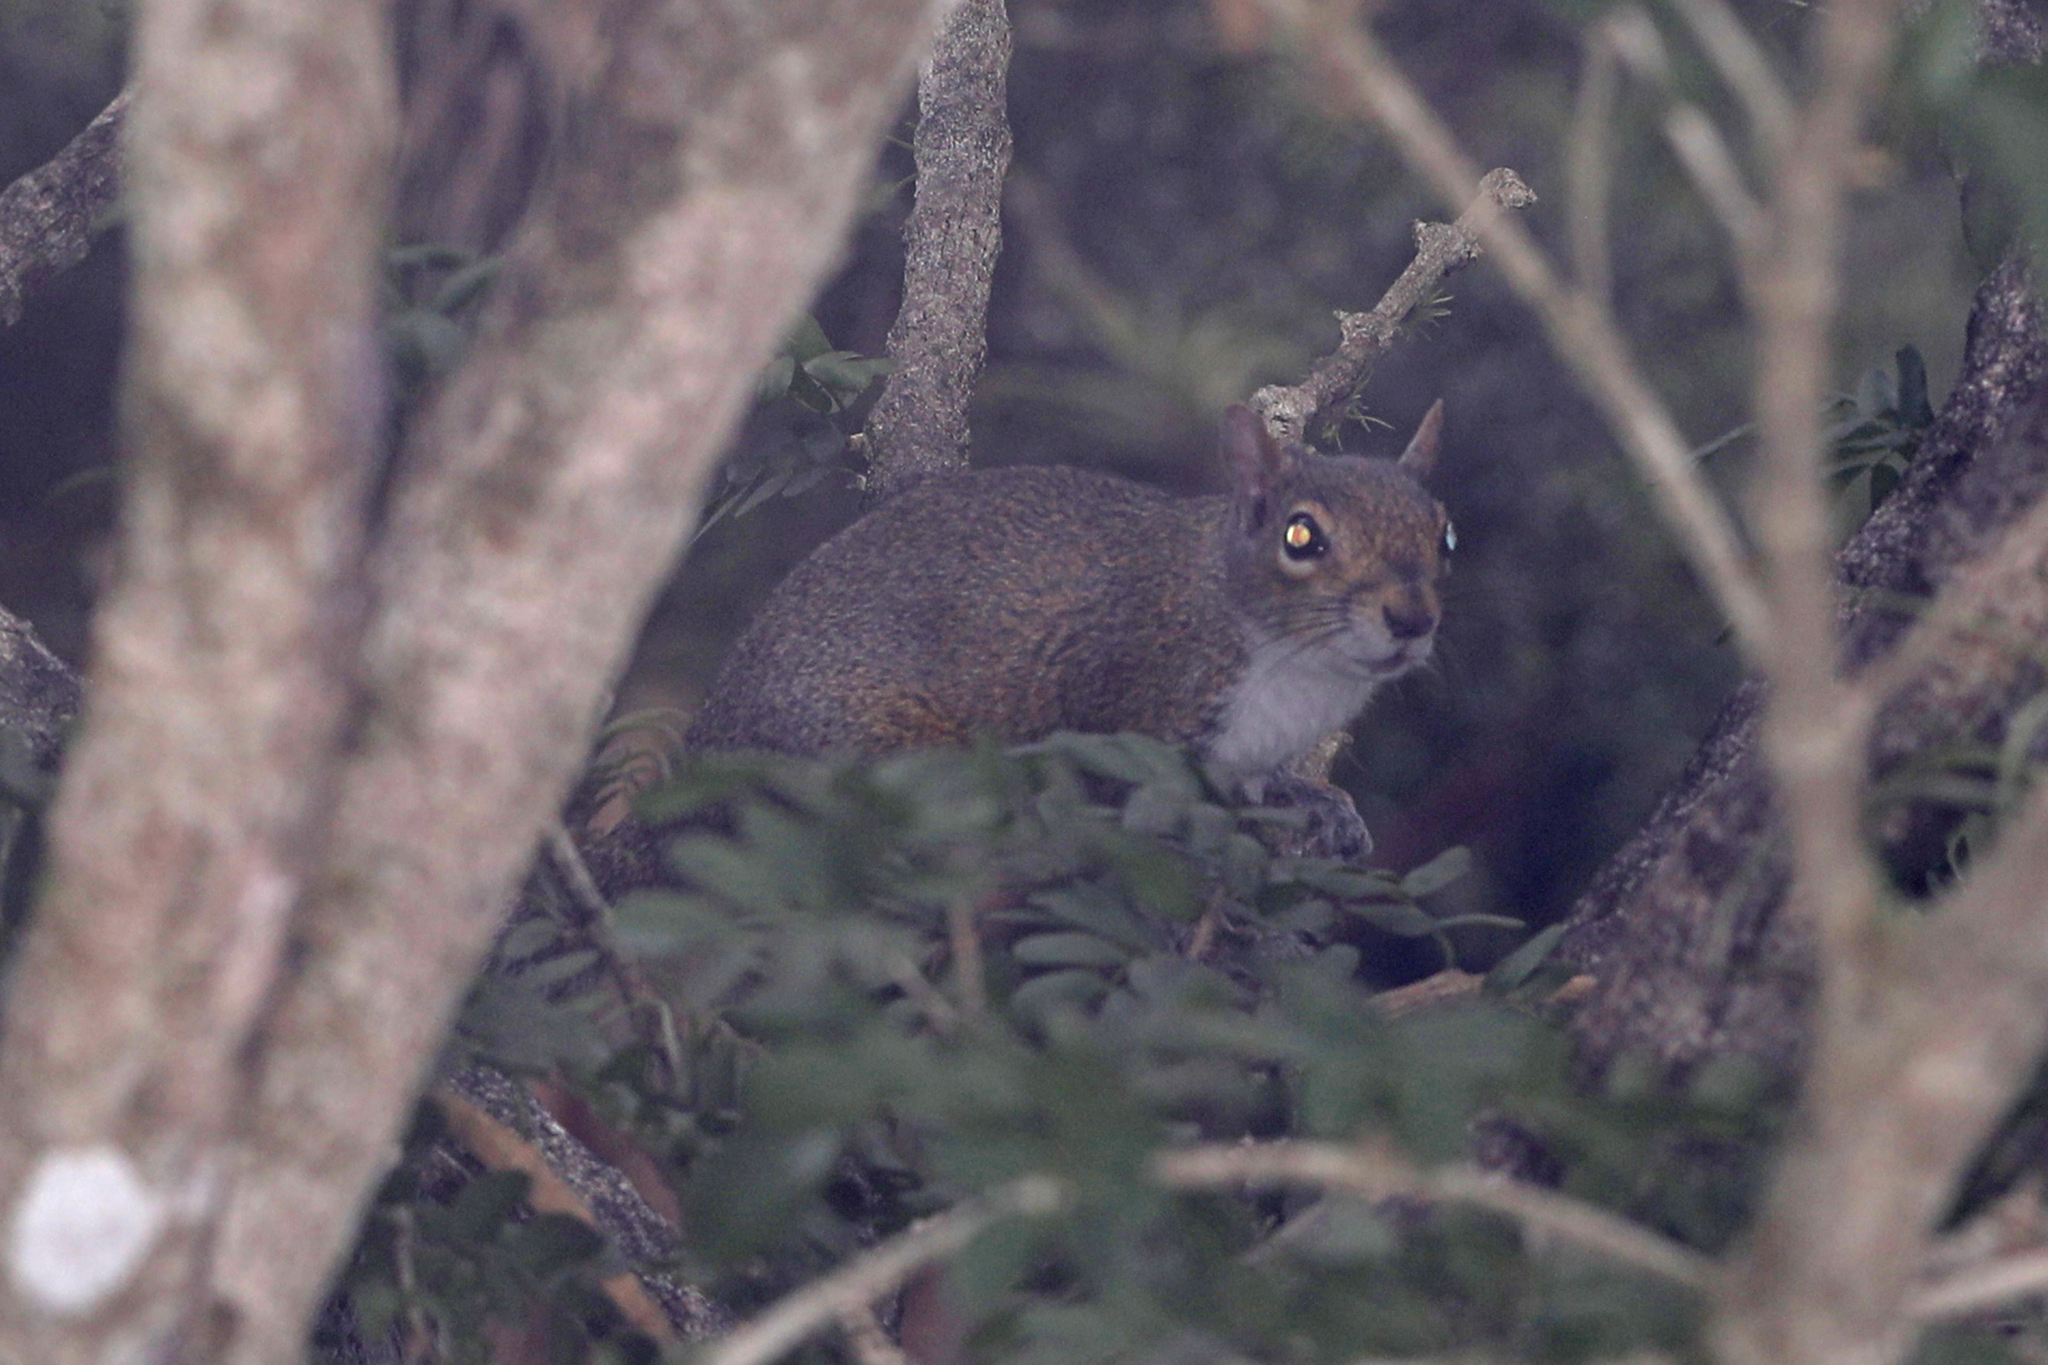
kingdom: Animalia
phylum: Chordata
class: Mammalia
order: Rodentia
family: Sciuridae
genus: Sciurus
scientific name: Sciurus carolinensis
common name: Eastern gray squirrel
